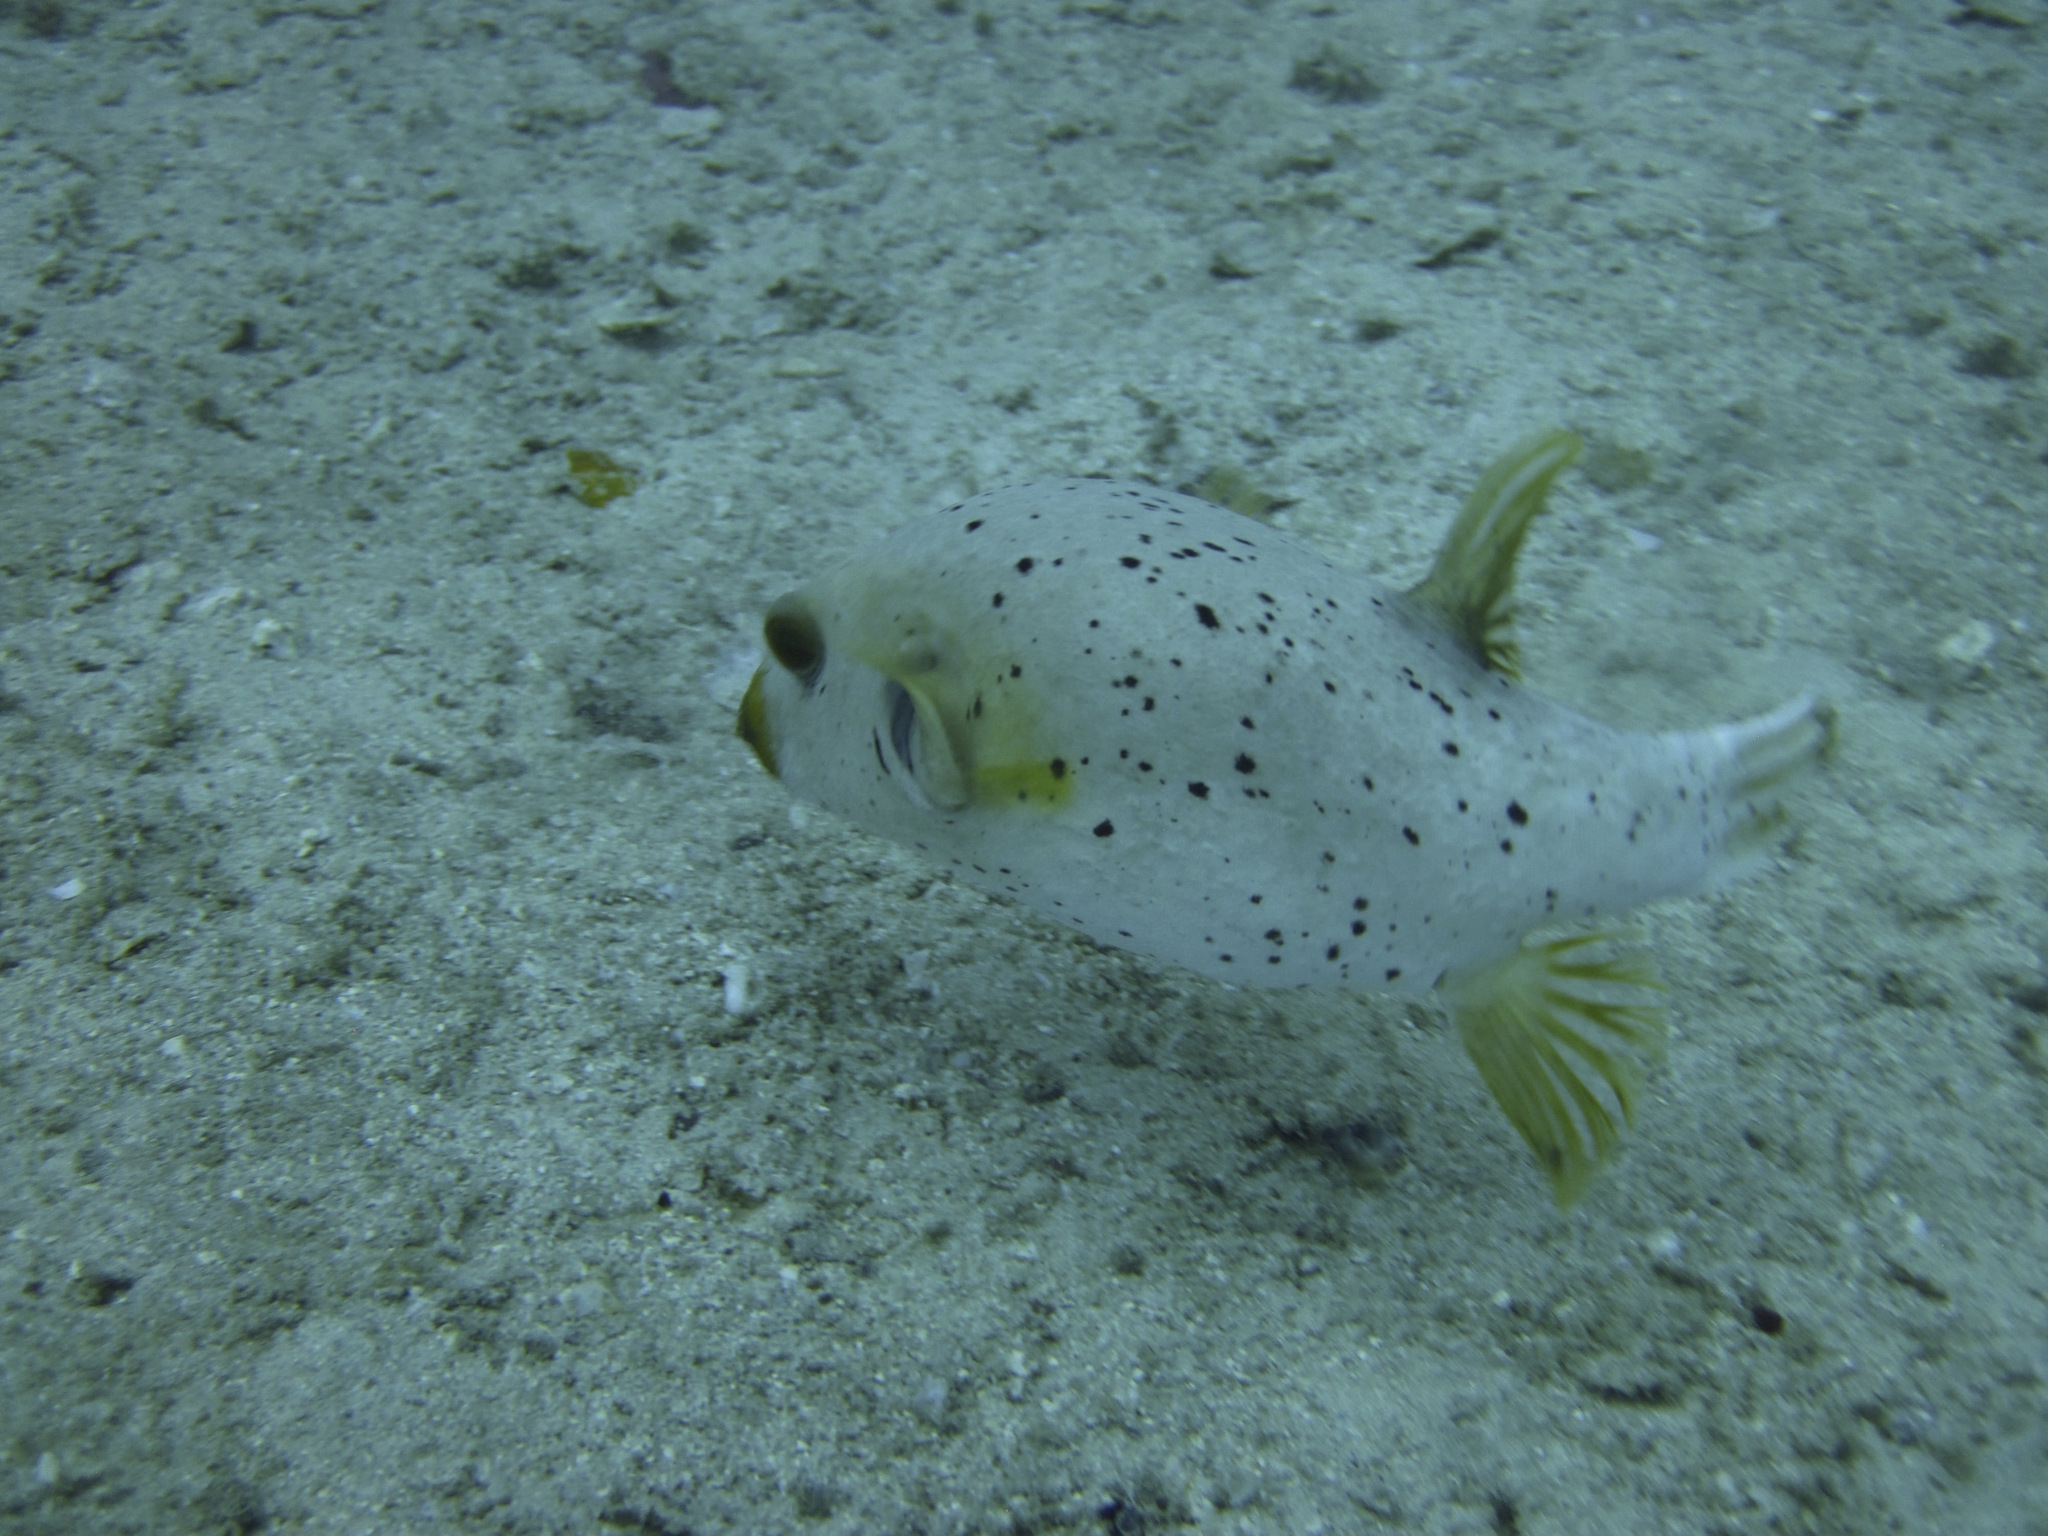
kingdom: Animalia
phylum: Chordata
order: Tetraodontiformes
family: Tetraodontidae
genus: Arothron
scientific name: Arothron nigropunctatus
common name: Black spotted blow fish
